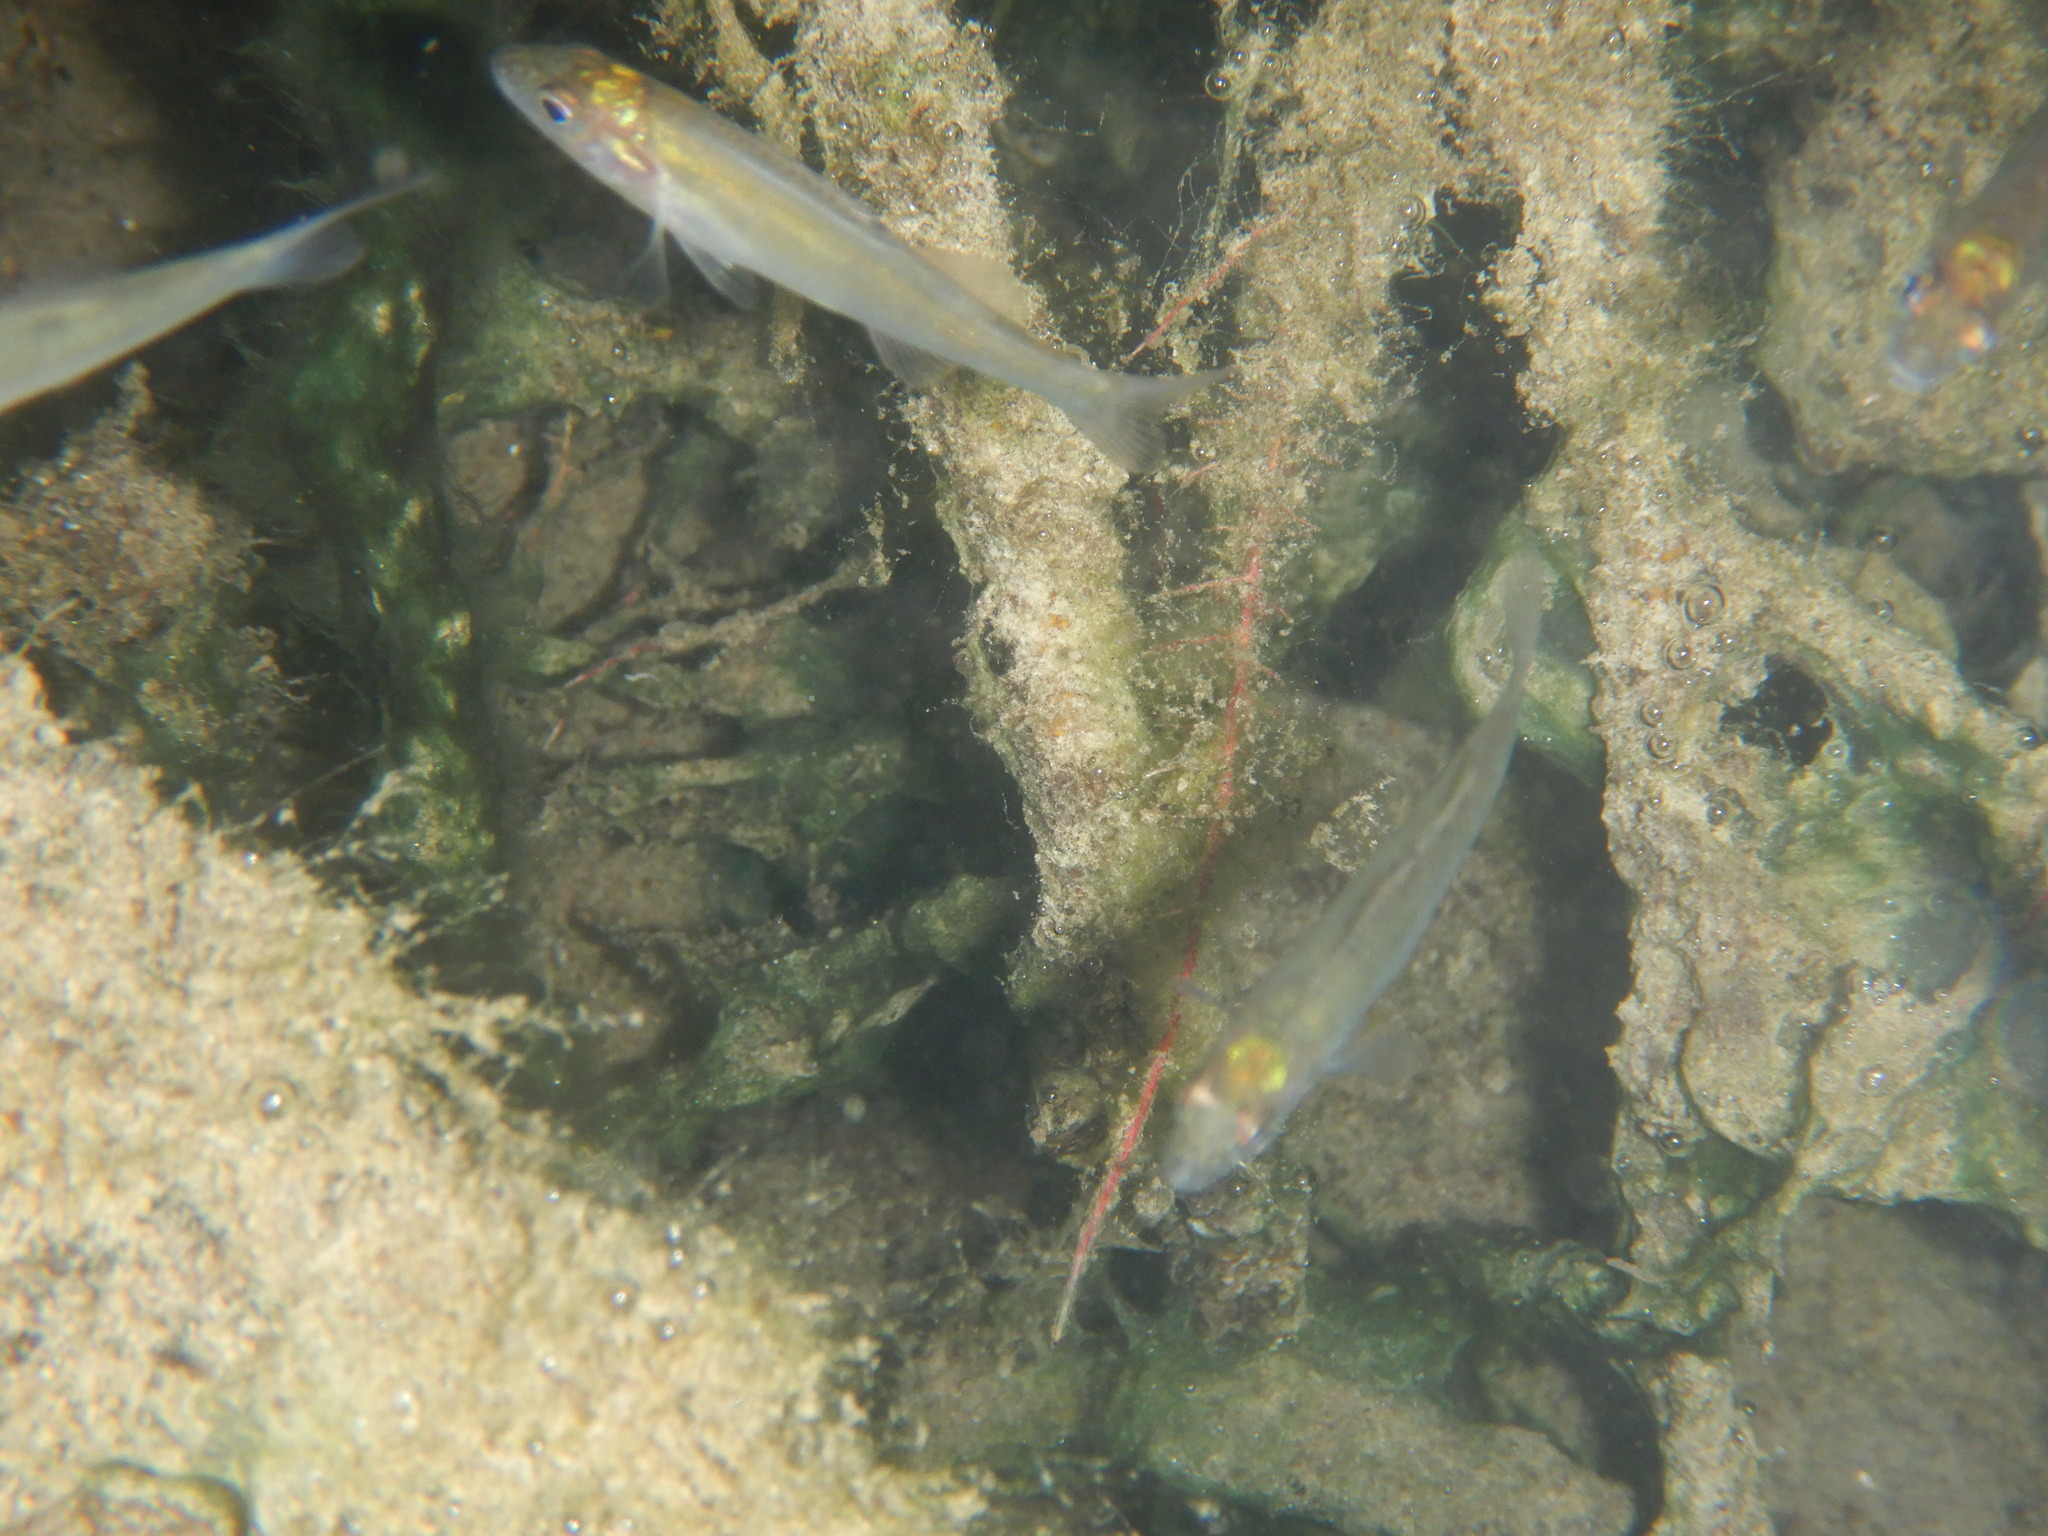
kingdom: Animalia
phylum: Chordata
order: Perciformes
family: Percidae
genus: Perca
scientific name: Perca fluviatilis
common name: Perch
